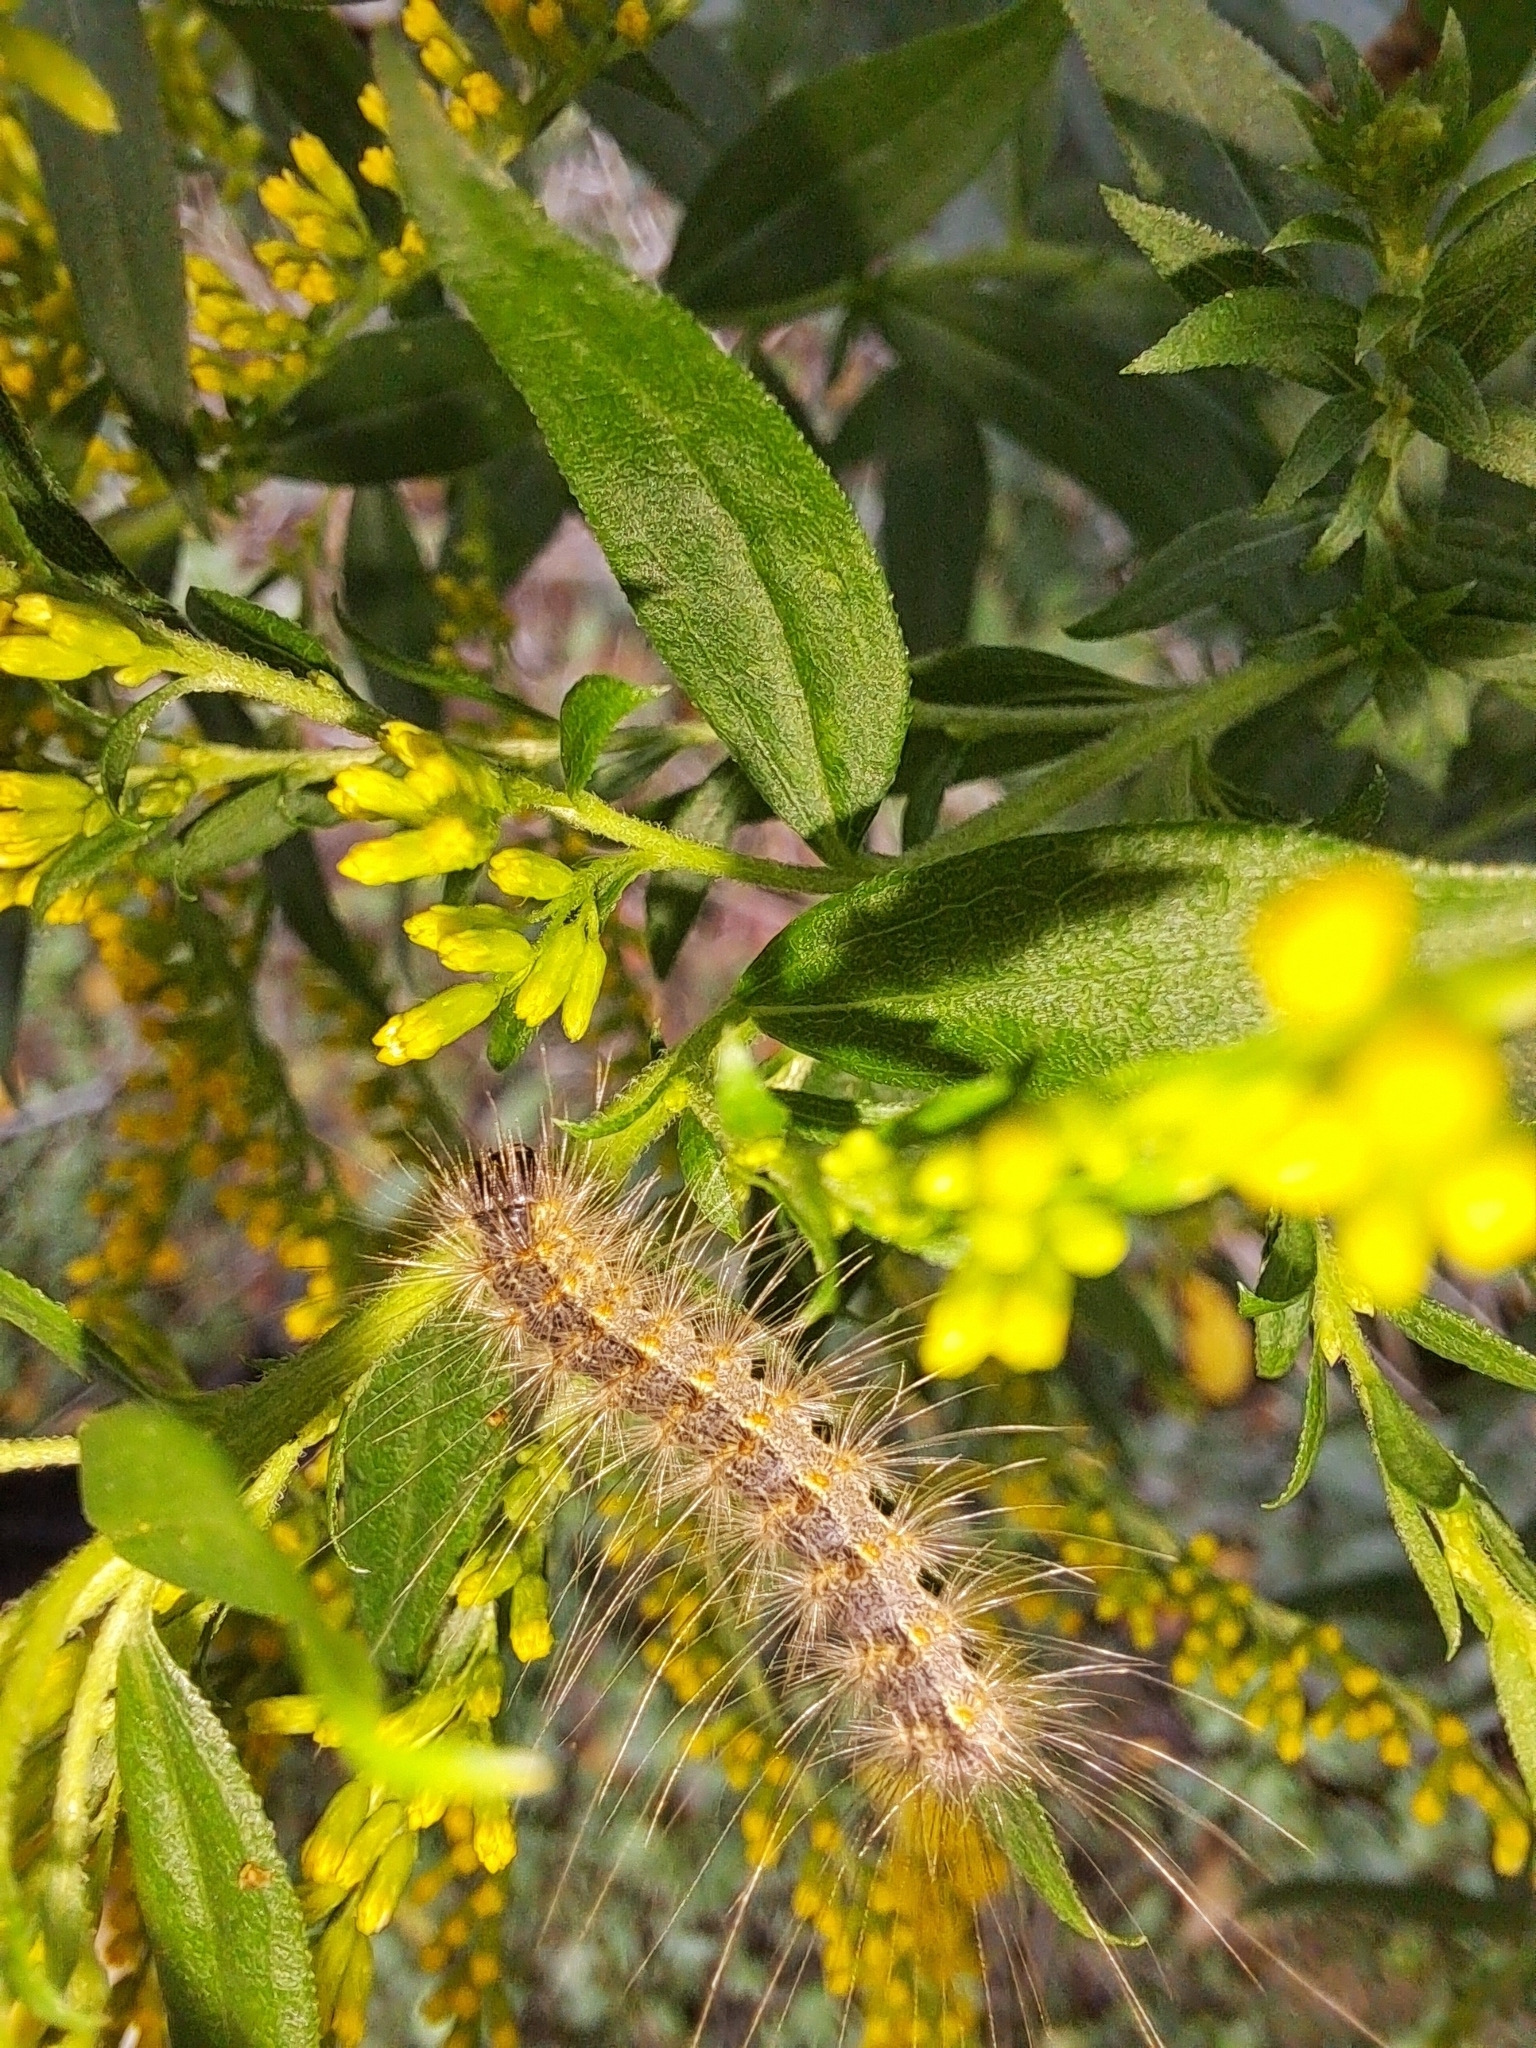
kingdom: Animalia
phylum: Arthropoda
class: Insecta
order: Lepidoptera
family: Erebidae
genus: Hyphantria
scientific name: Hyphantria cunea
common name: American white moth
